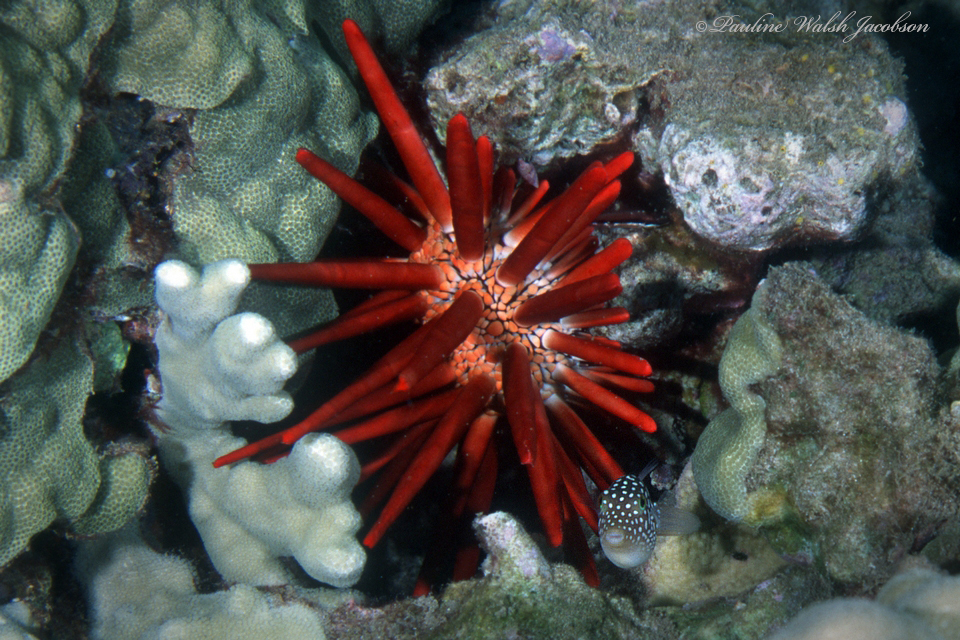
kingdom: Animalia
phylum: Chordata
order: Tetraodontiformes
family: Tetraodontidae
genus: Canthigaster
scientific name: Canthigaster jactator
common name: Hawaiian whitespotted toby
